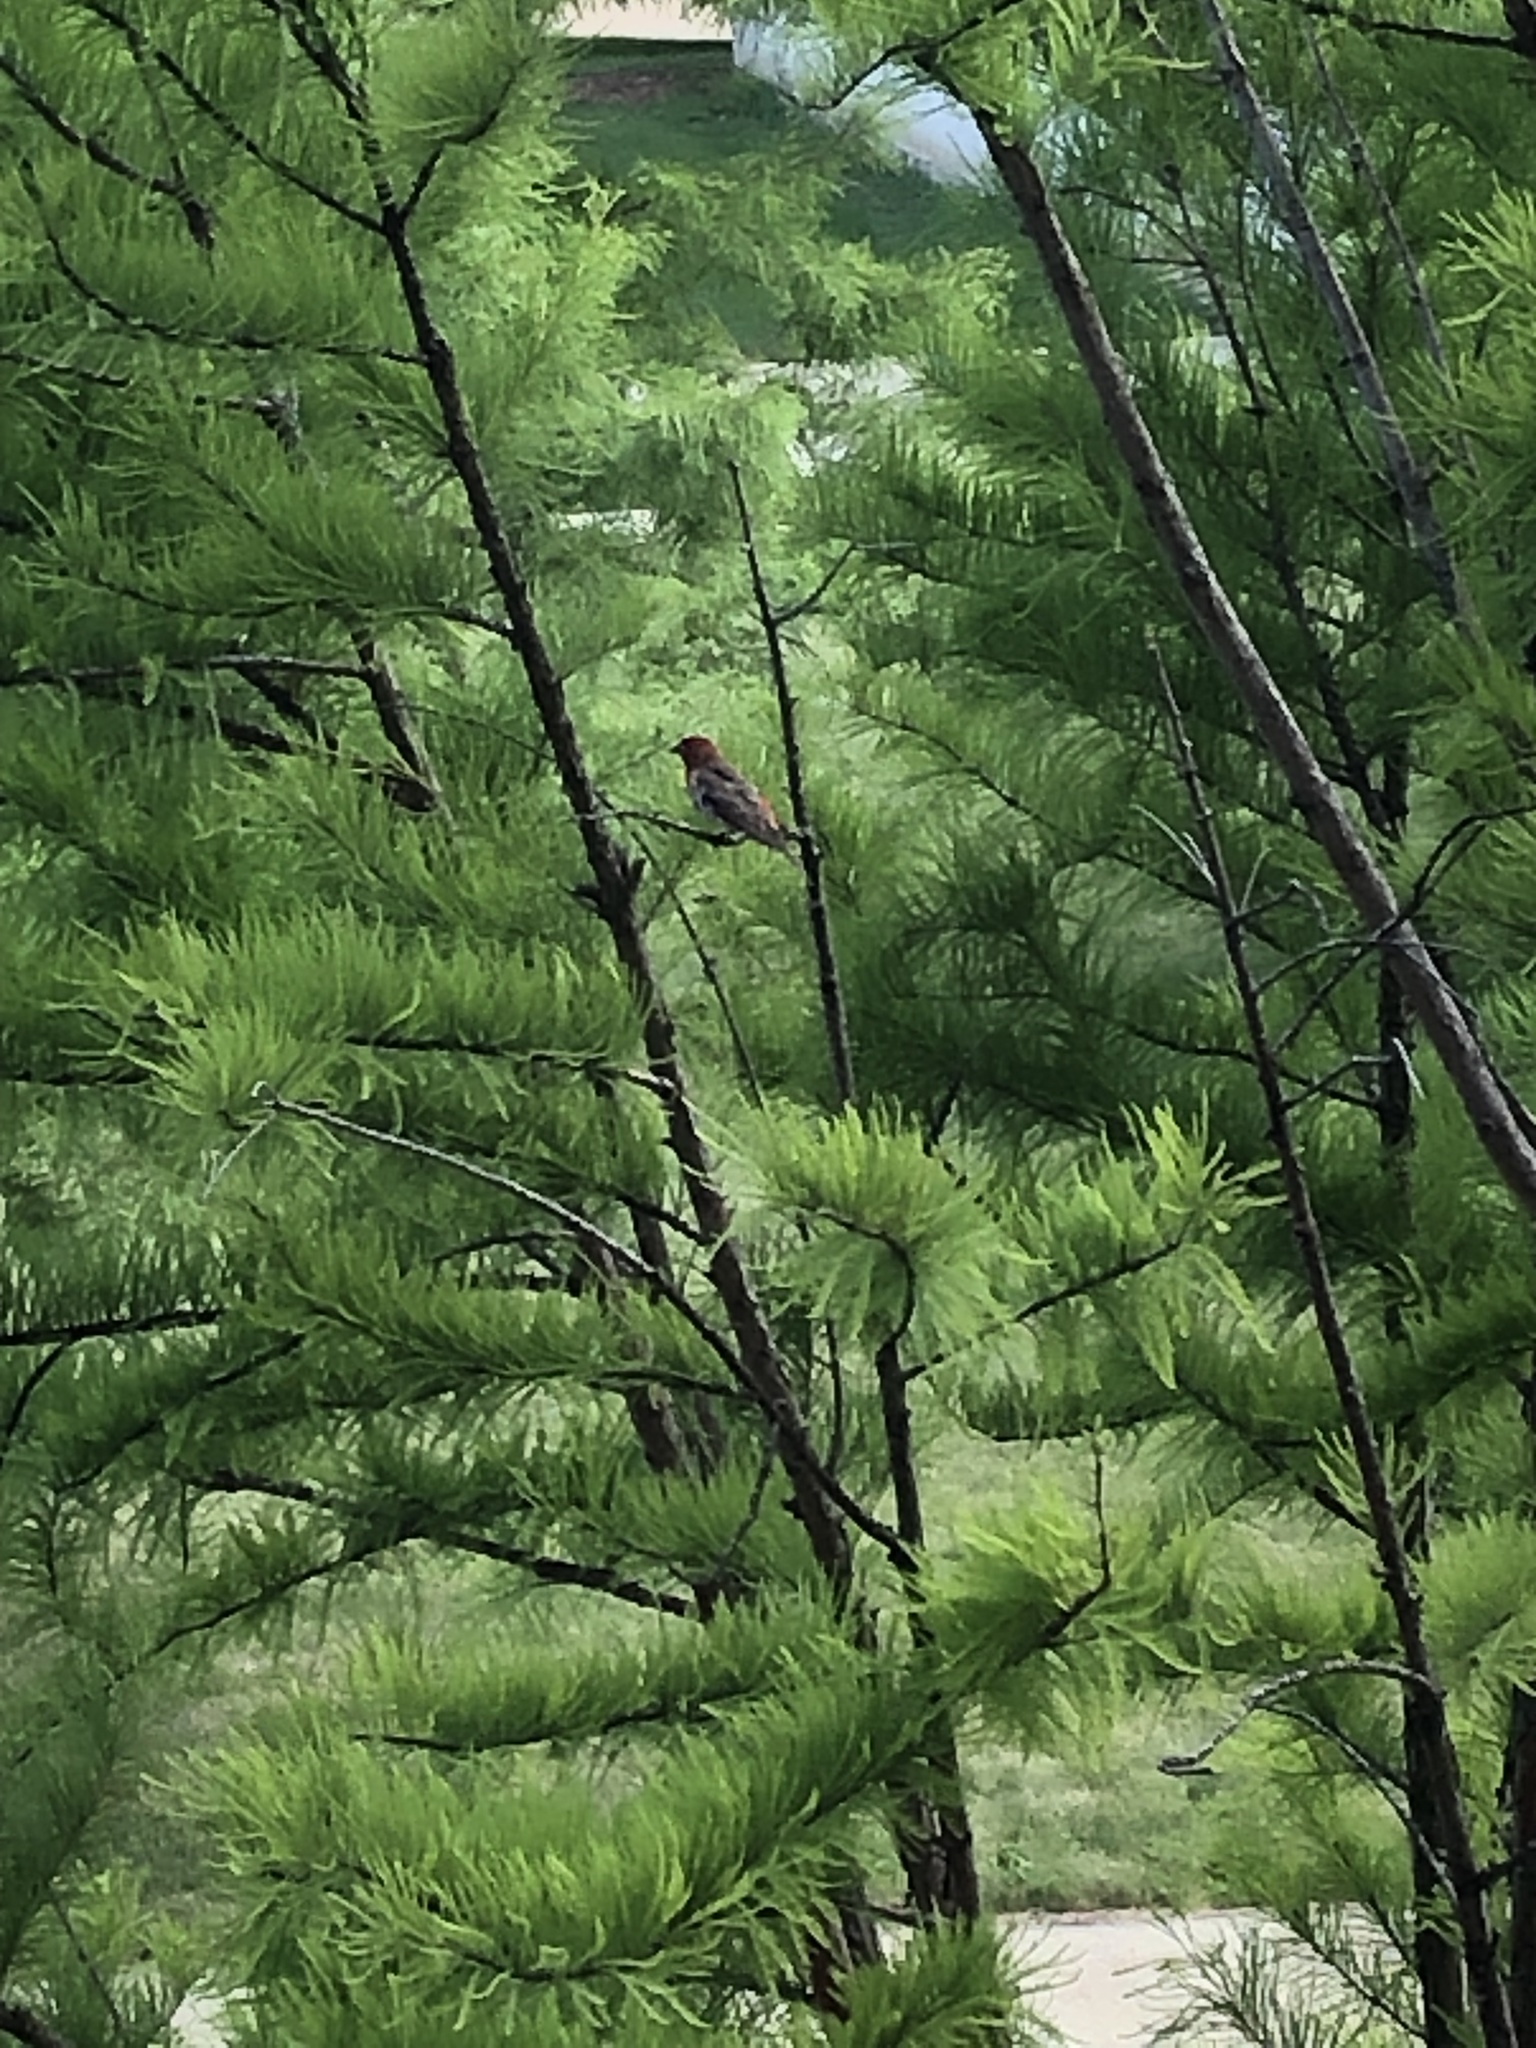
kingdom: Animalia
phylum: Chordata
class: Aves
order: Passeriformes
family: Fringillidae
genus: Haemorhous
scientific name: Haemorhous mexicanus
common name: House finch
